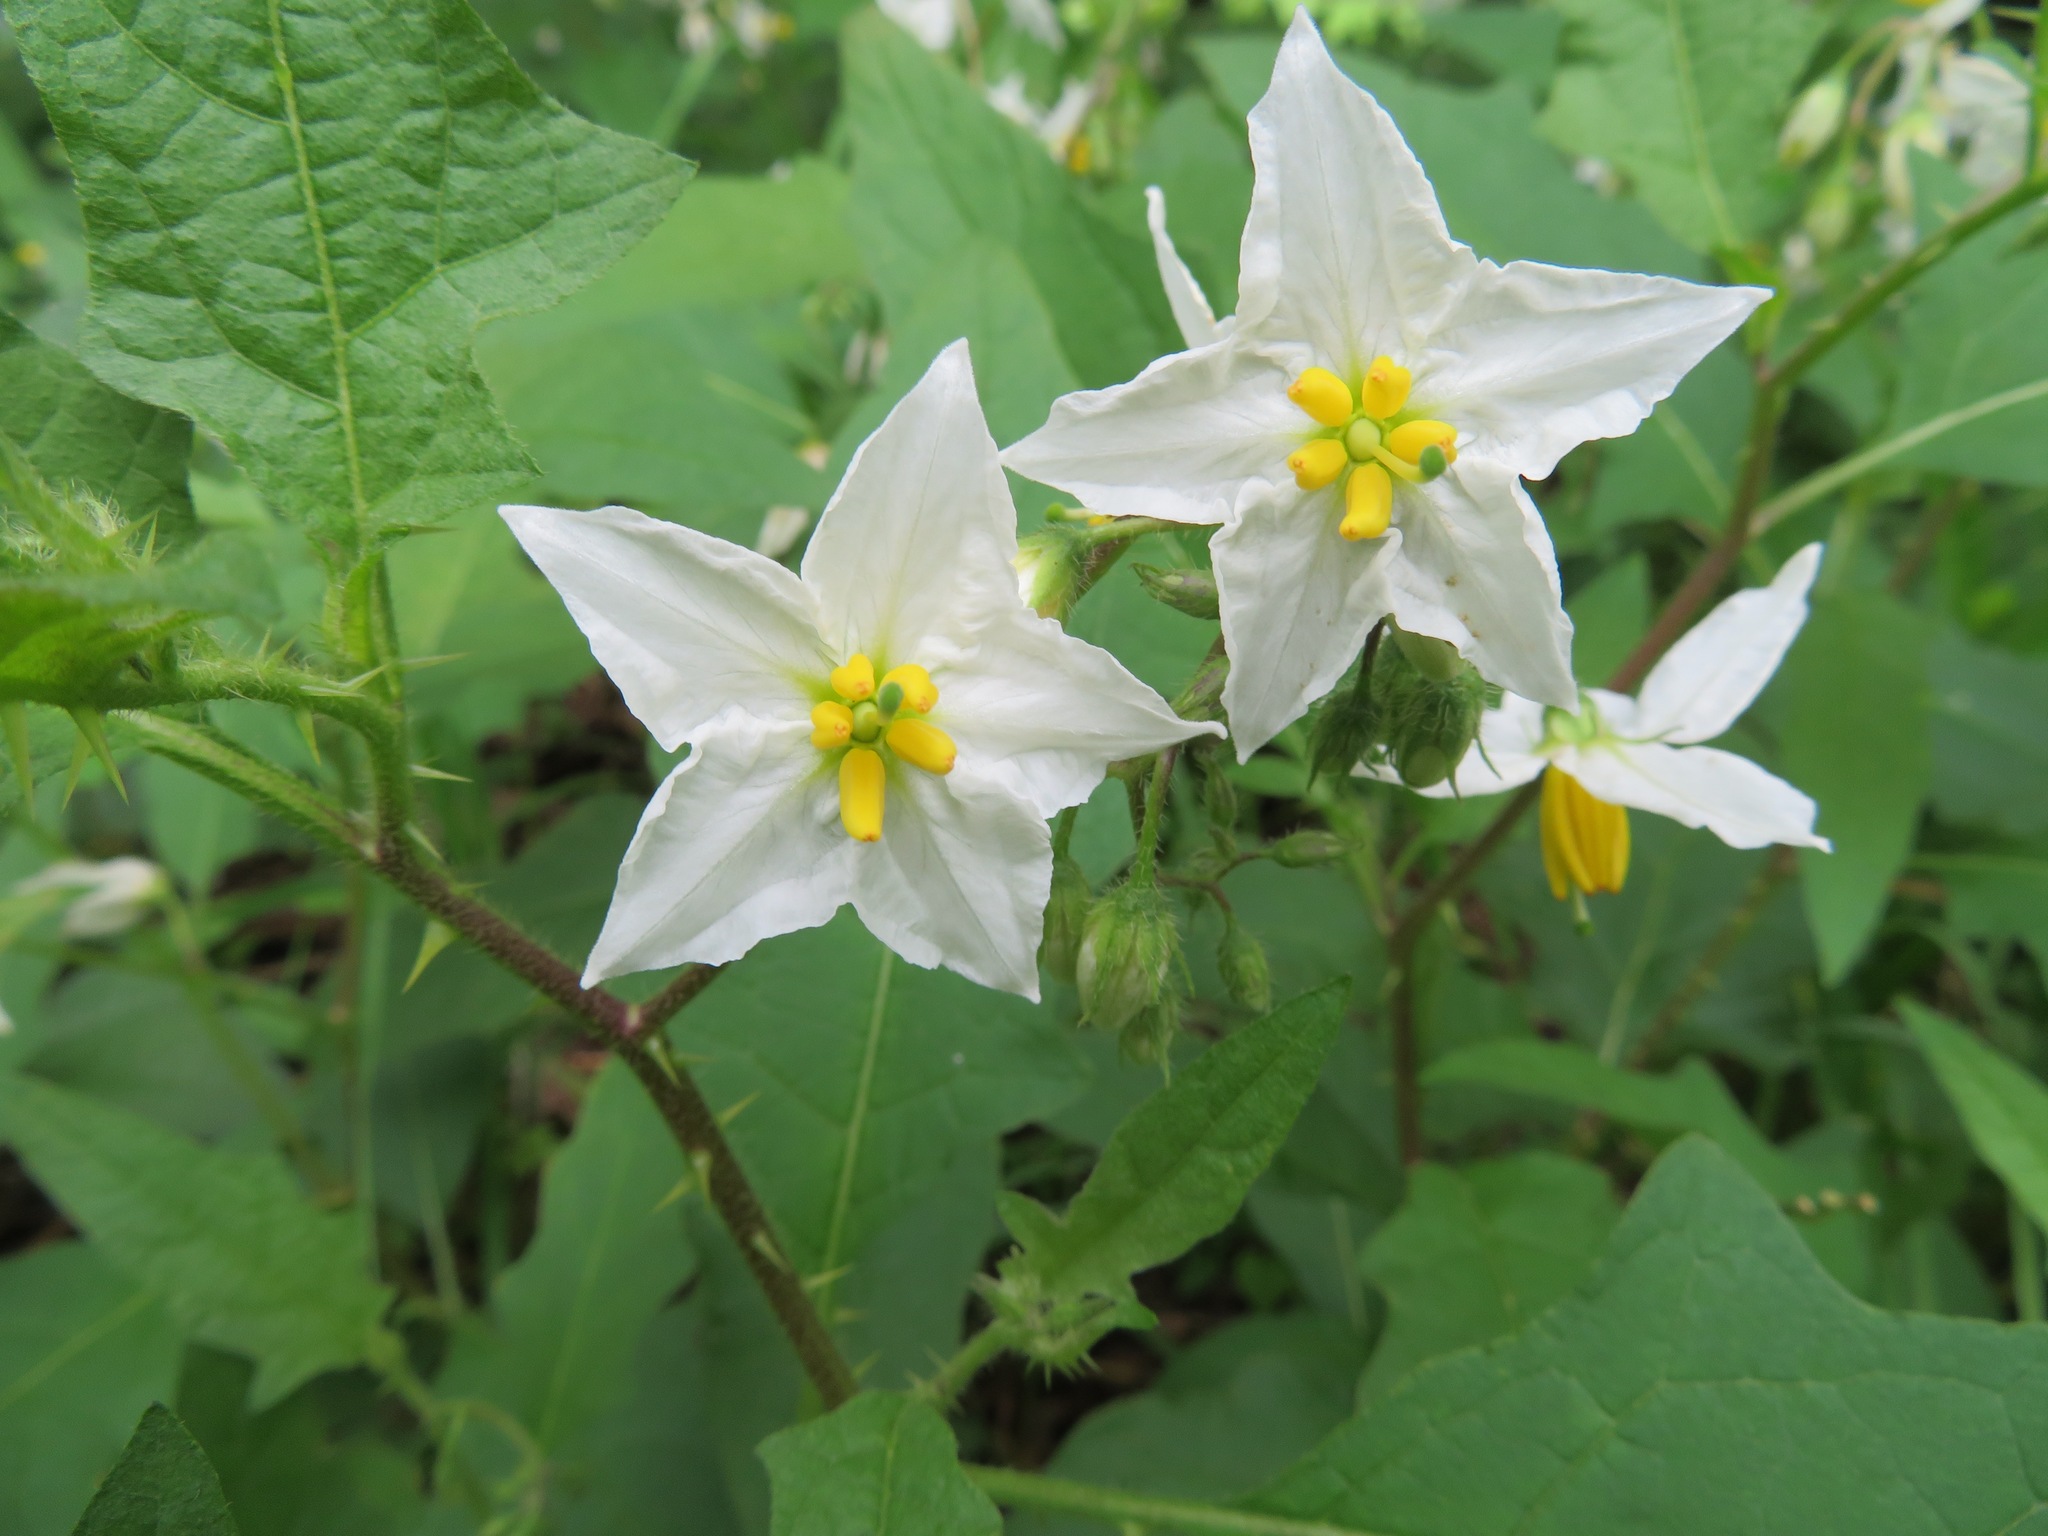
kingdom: Plantae
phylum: Tracheophyta
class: Magnoliopsida
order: Solanales
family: Solanaceae
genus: Solanum
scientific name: Solanum carolinense
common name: Horse-nettle
